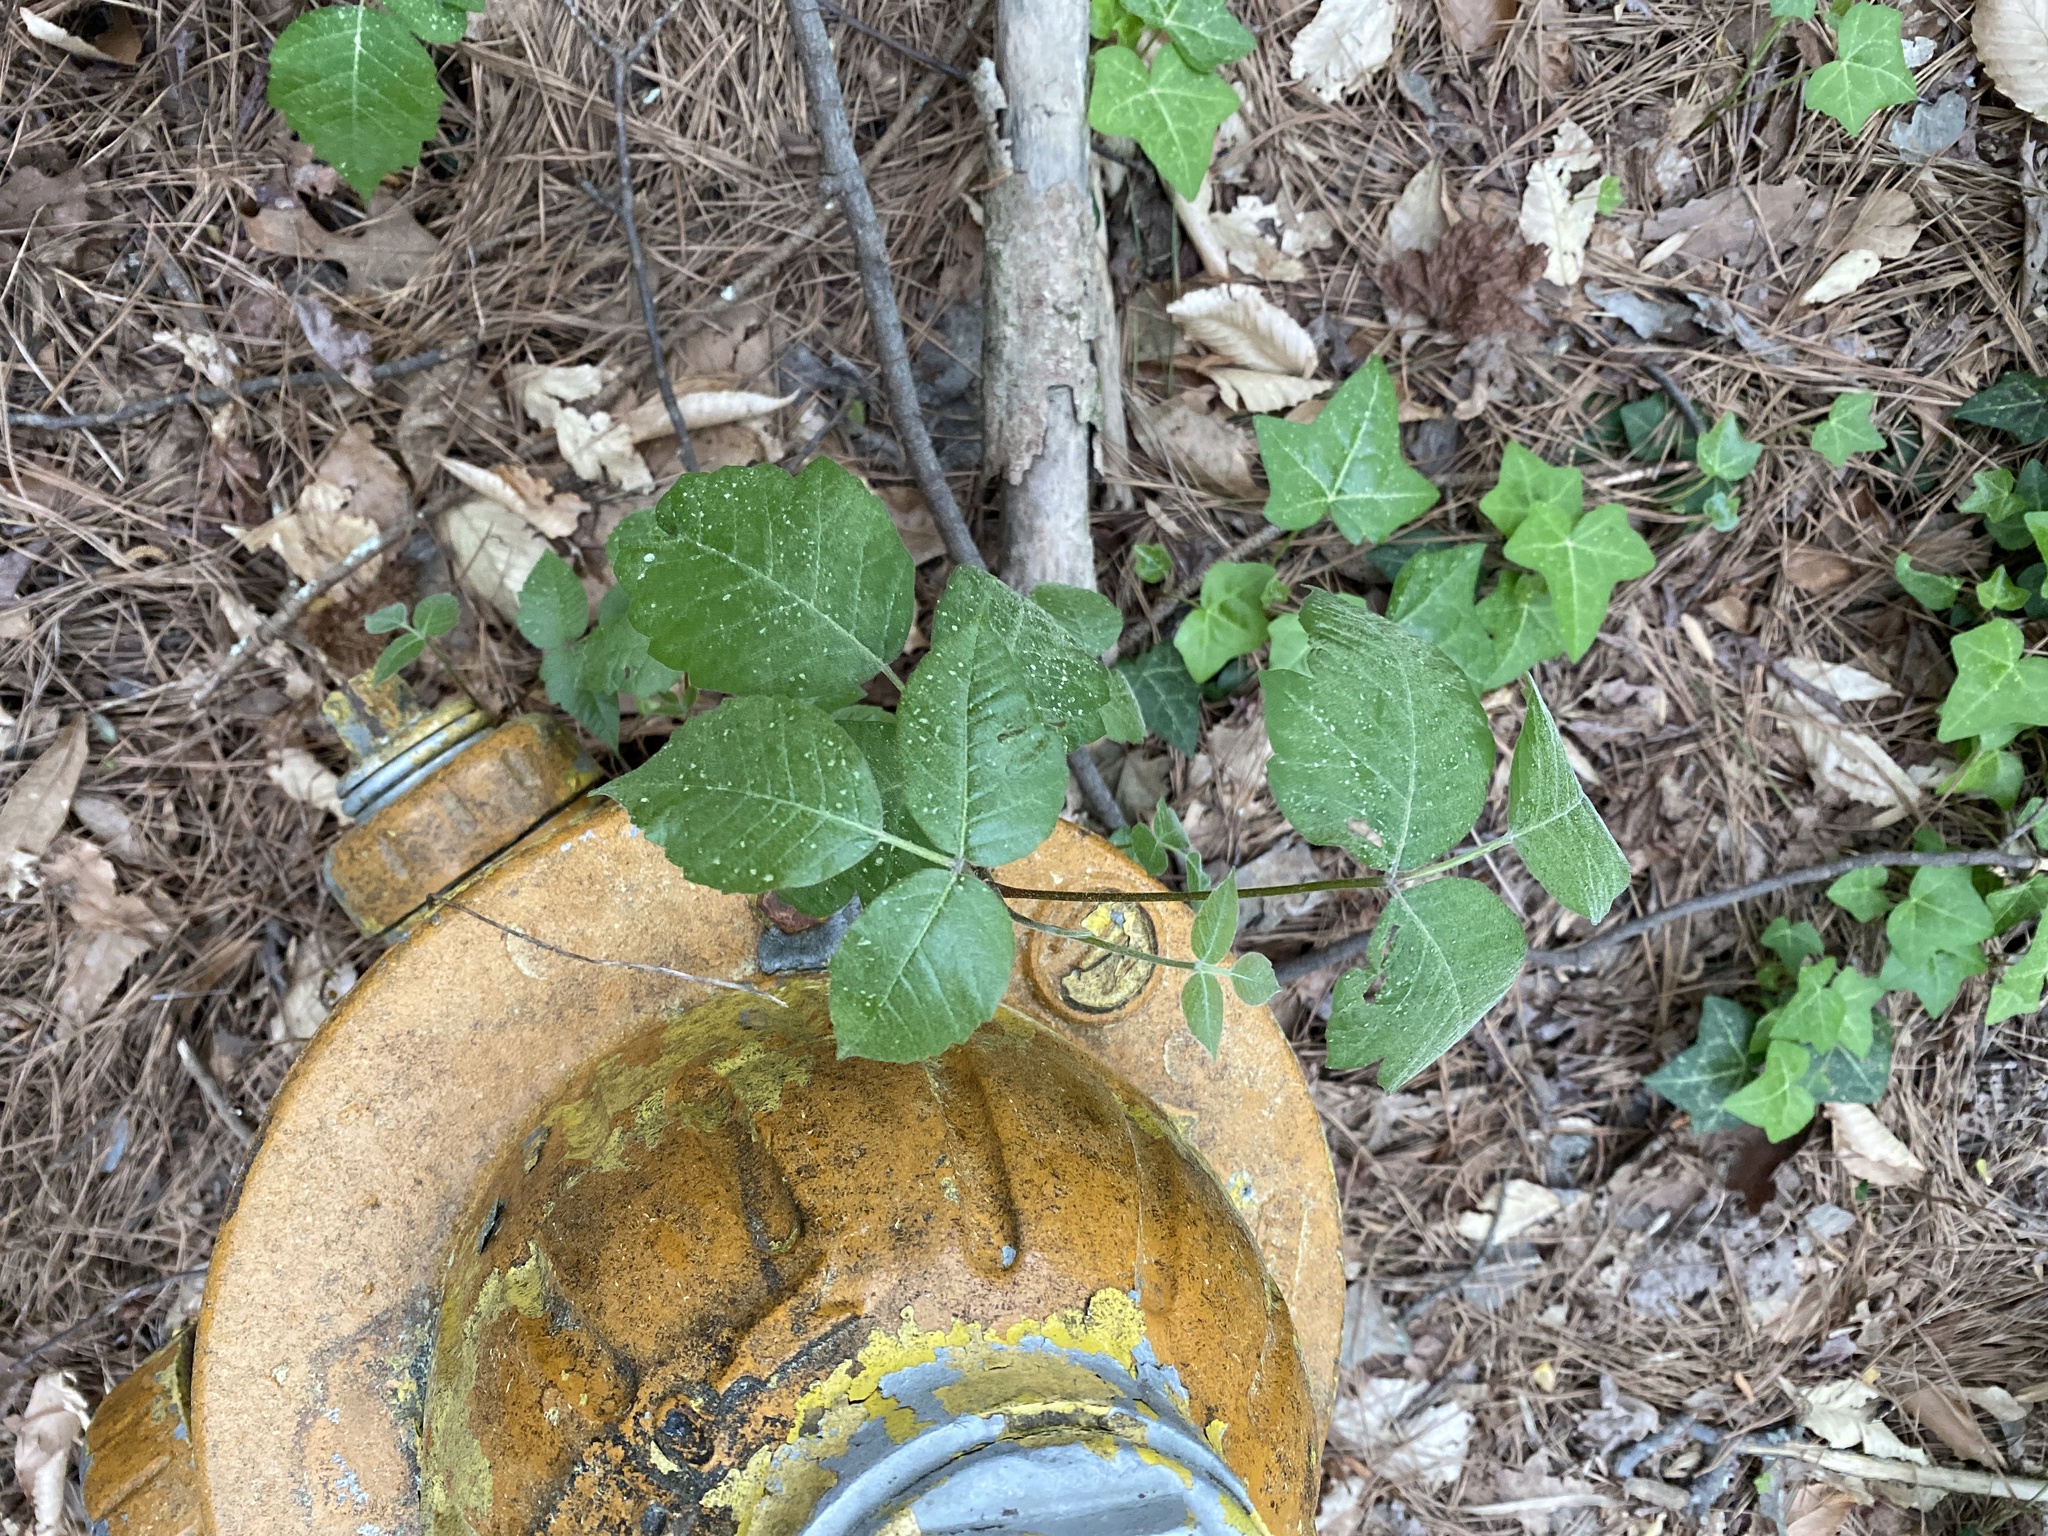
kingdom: Plantae
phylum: Tracheophyta
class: Magnoliopsida
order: Sapindales
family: Anacardiaceae
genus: Toxicodendron
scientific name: Toxicodendron radicans
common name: Poison ivy
